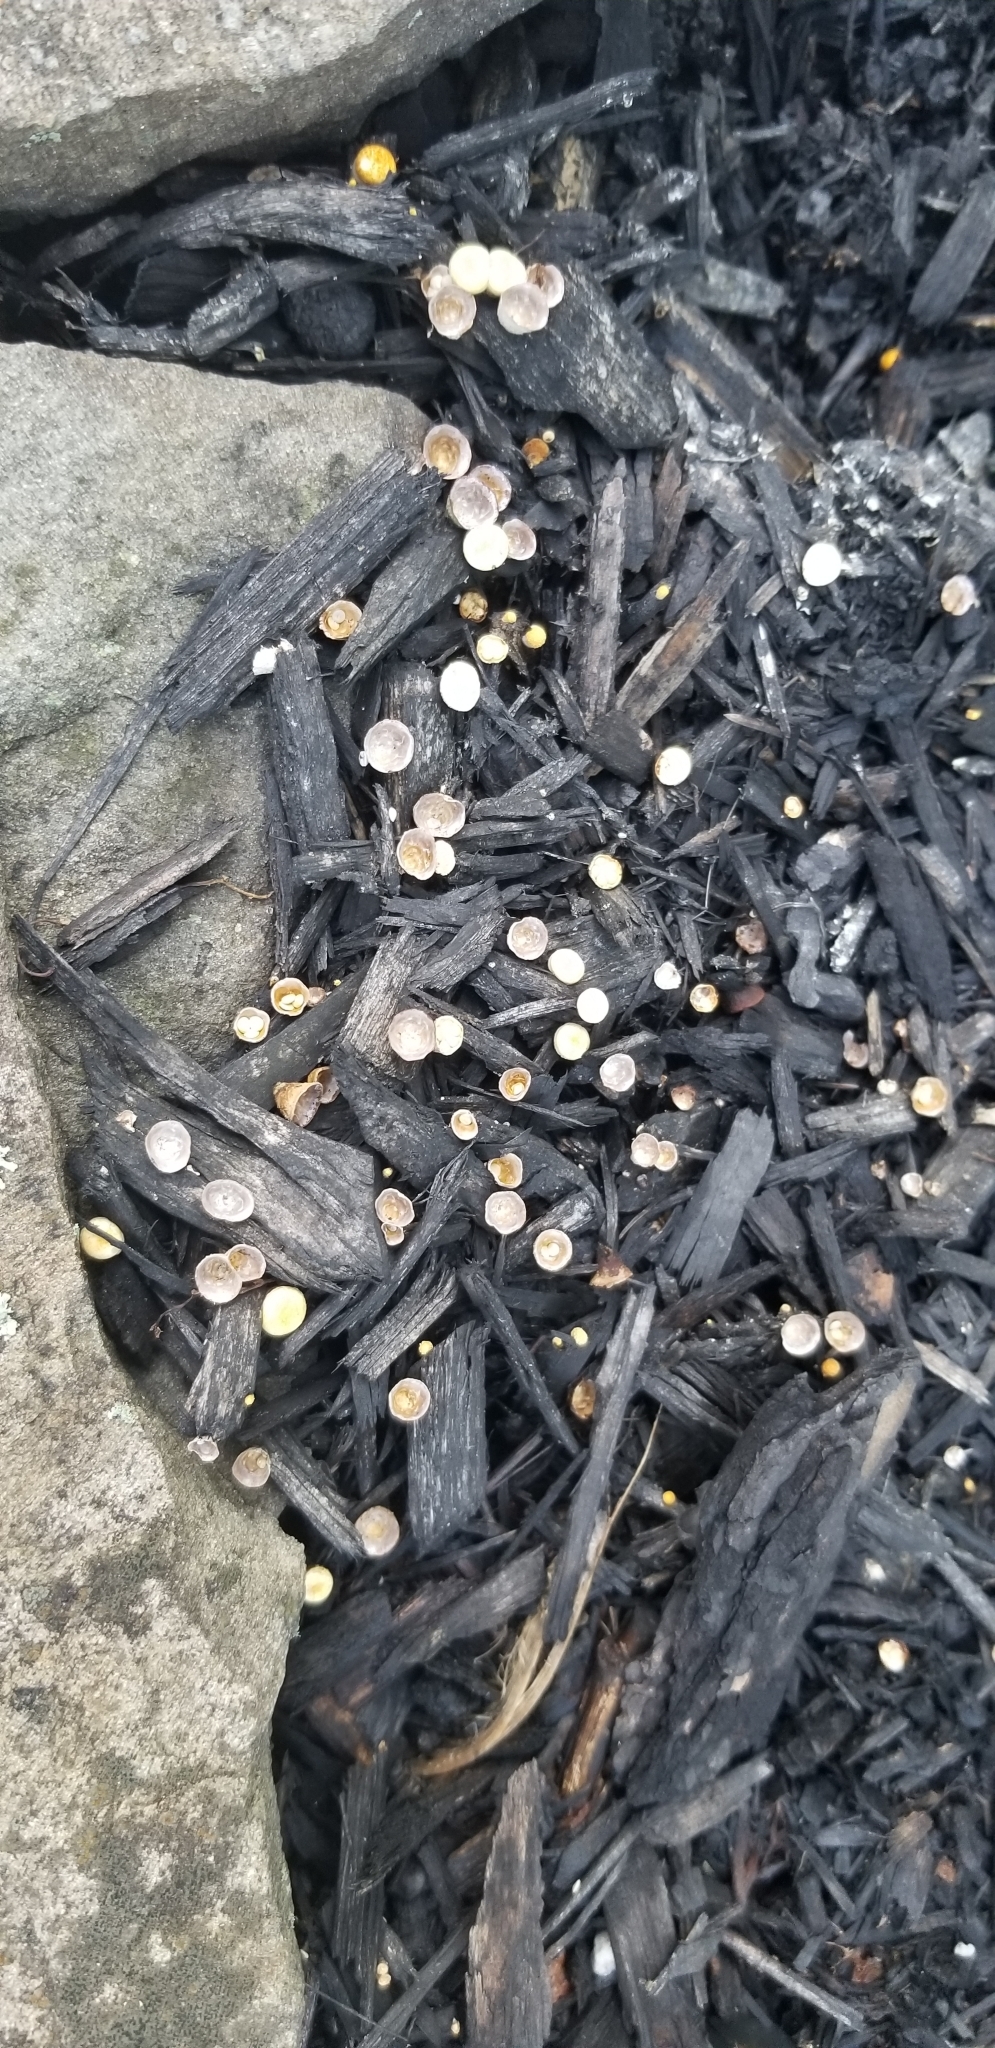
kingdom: Fungi
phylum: Basidiomycota
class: Agaricomycetes
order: Agaricales
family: Nidulariaceae
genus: Crucibulum
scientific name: Crucibulum laeve
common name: Common bird's nest
